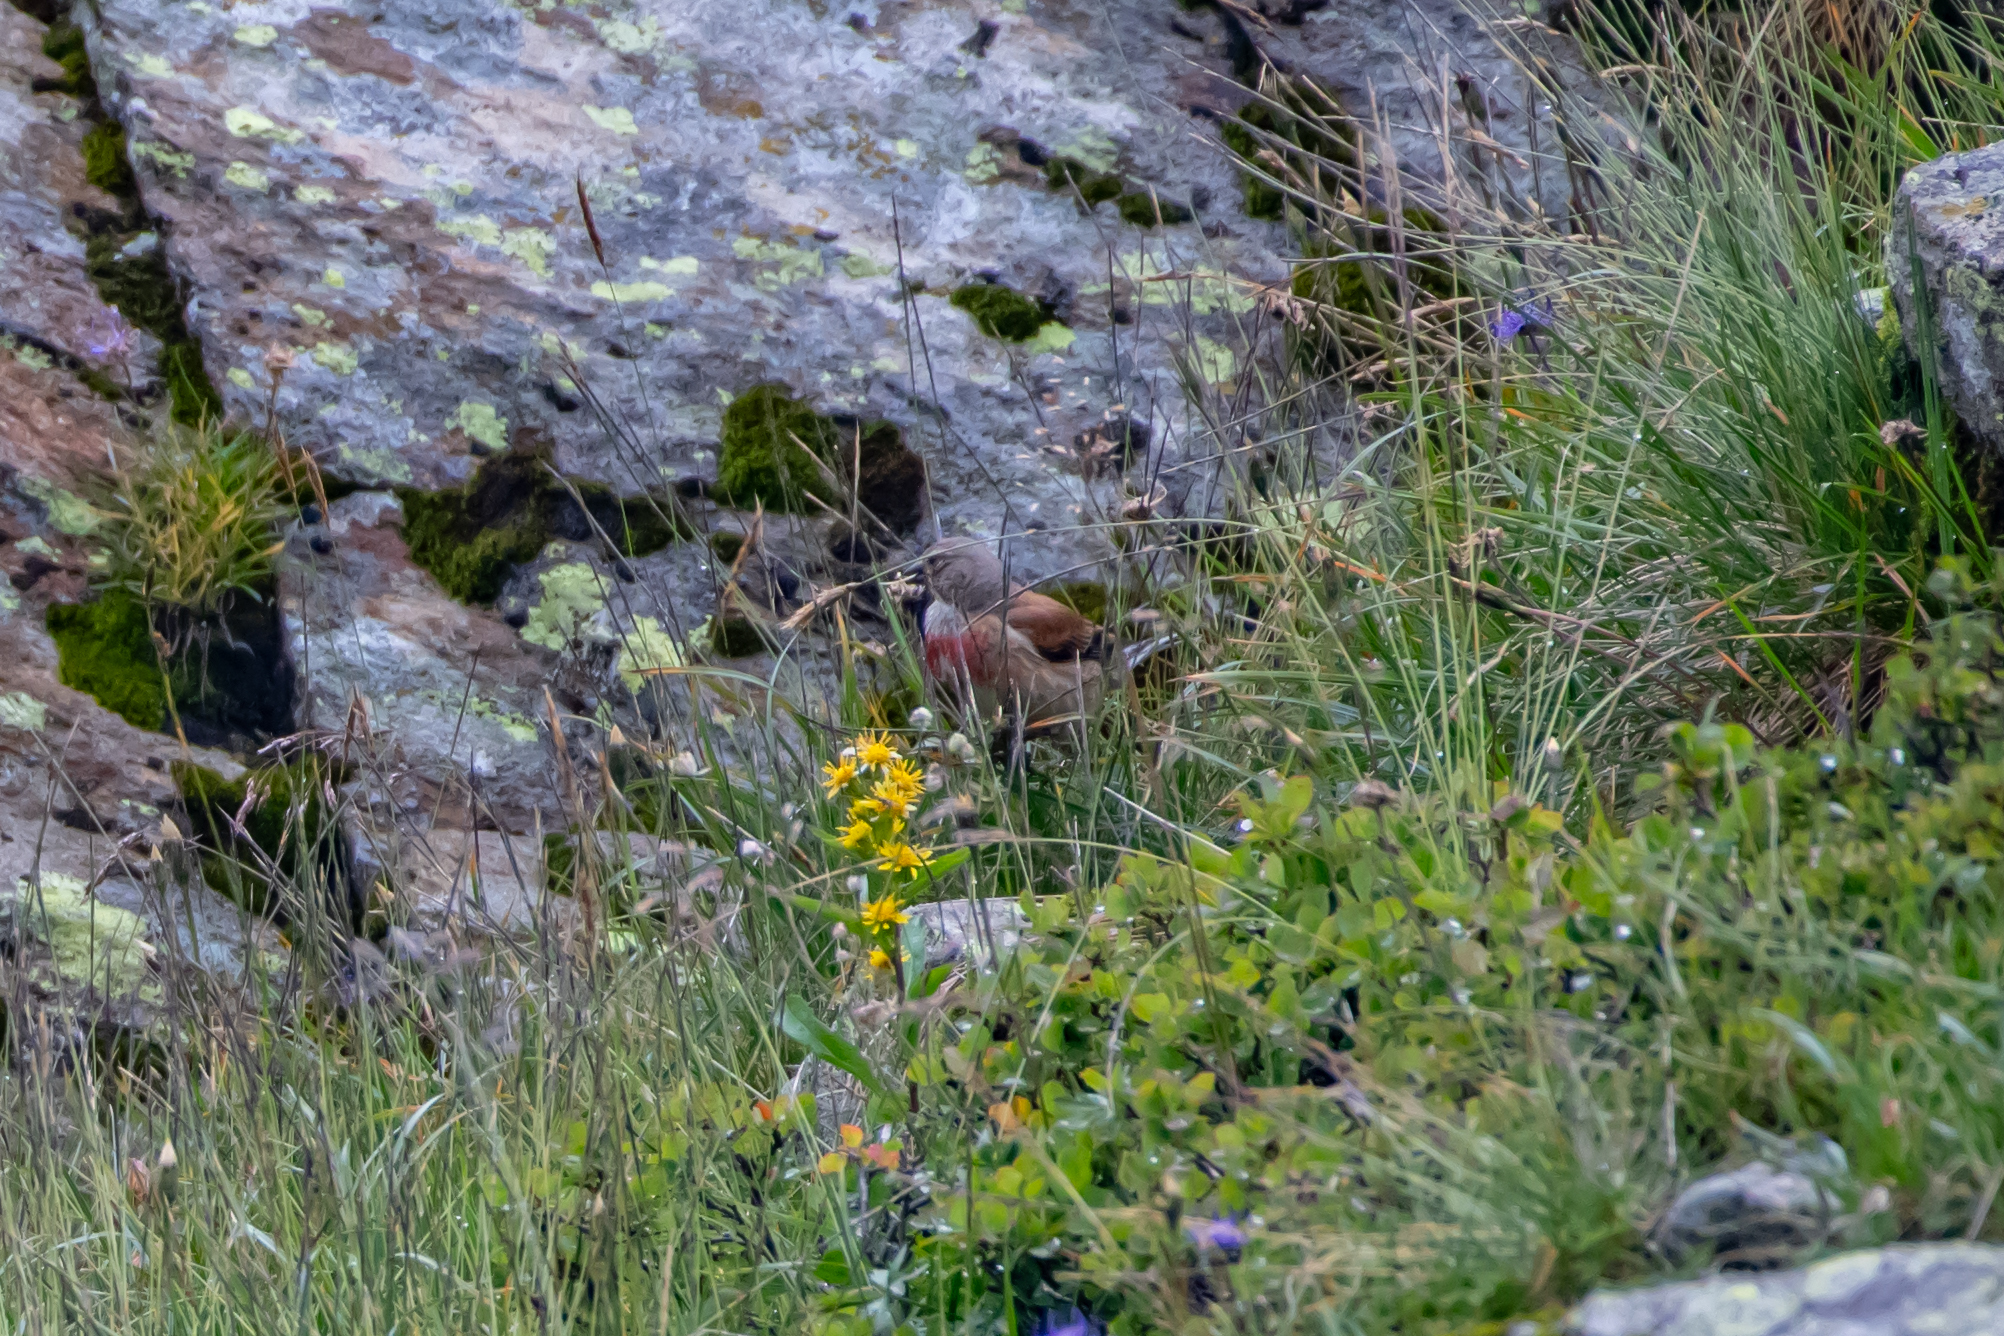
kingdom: Animalia
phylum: Chordata
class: Aves
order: Passeriformes
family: Fringillidae
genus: Linaria
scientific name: Linaria cannabina
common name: Common linnet
